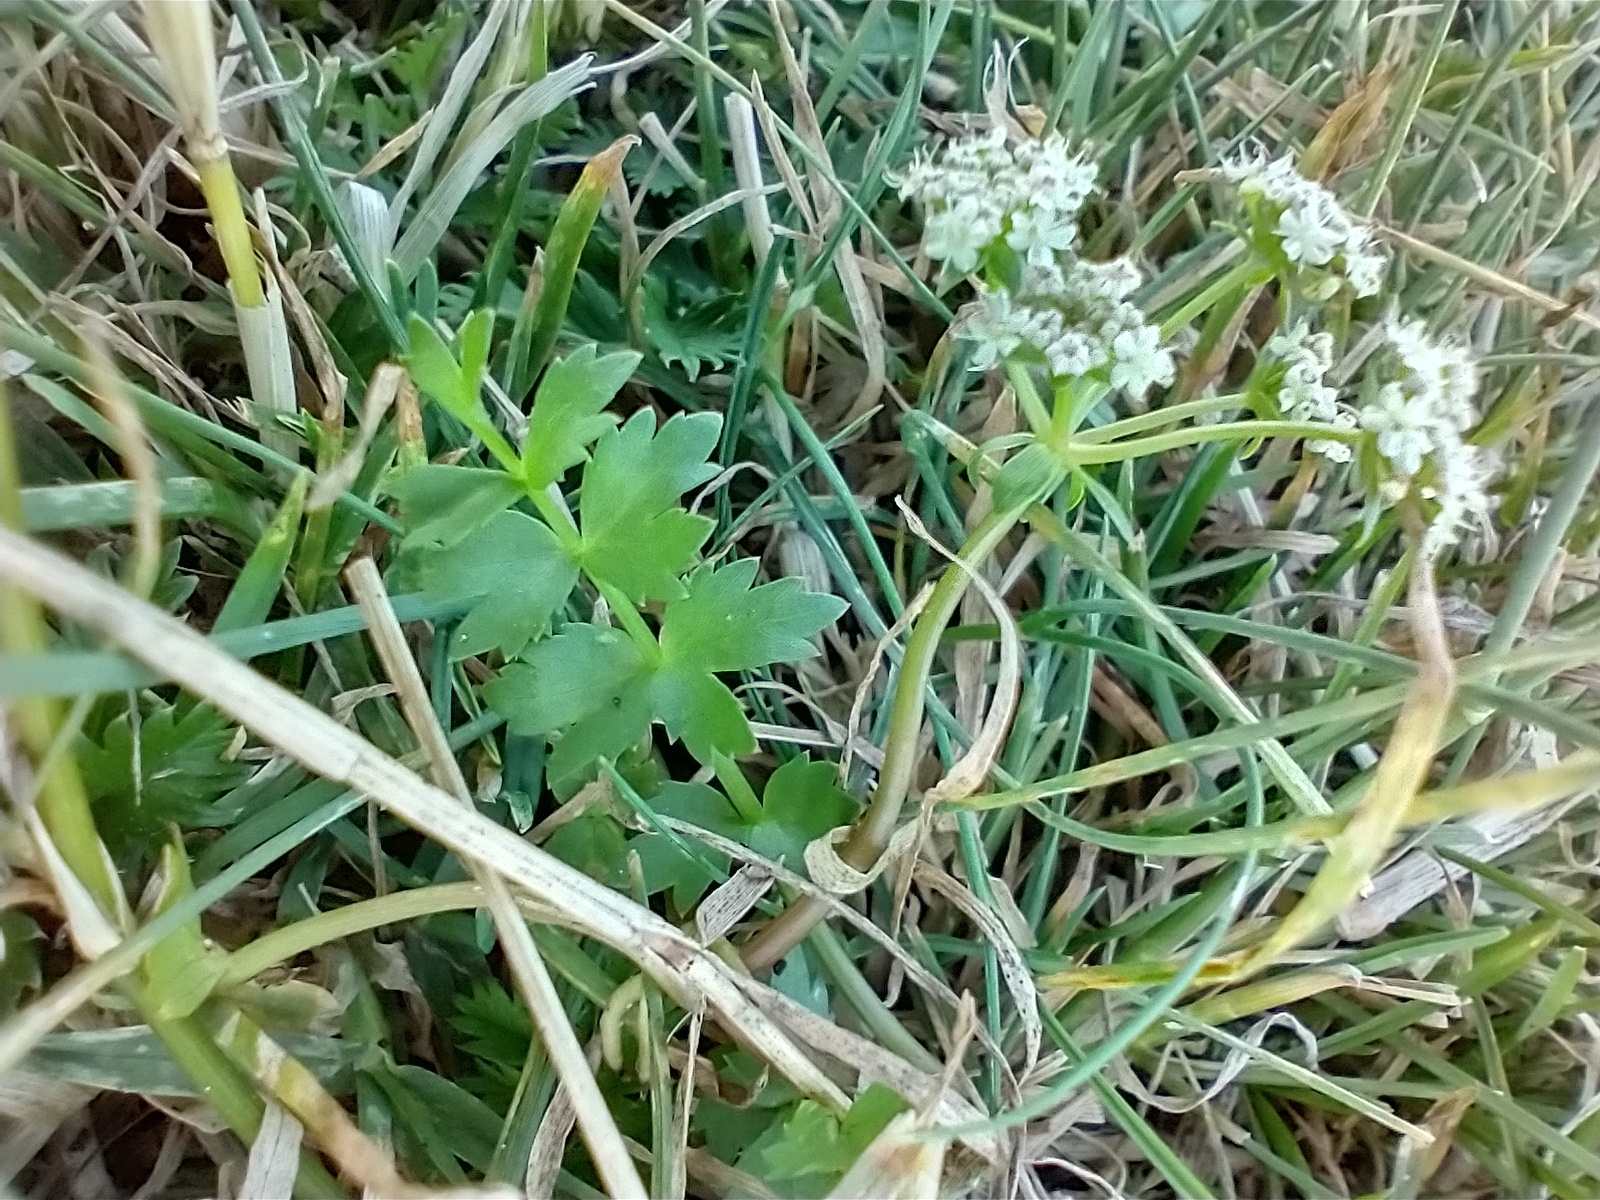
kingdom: Plantae
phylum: Tracheophyta
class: Magnoliopsida
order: Apiales
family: Apiaceae
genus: Helosciadium
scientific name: Helosciadium repens
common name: Creeping marshwort
